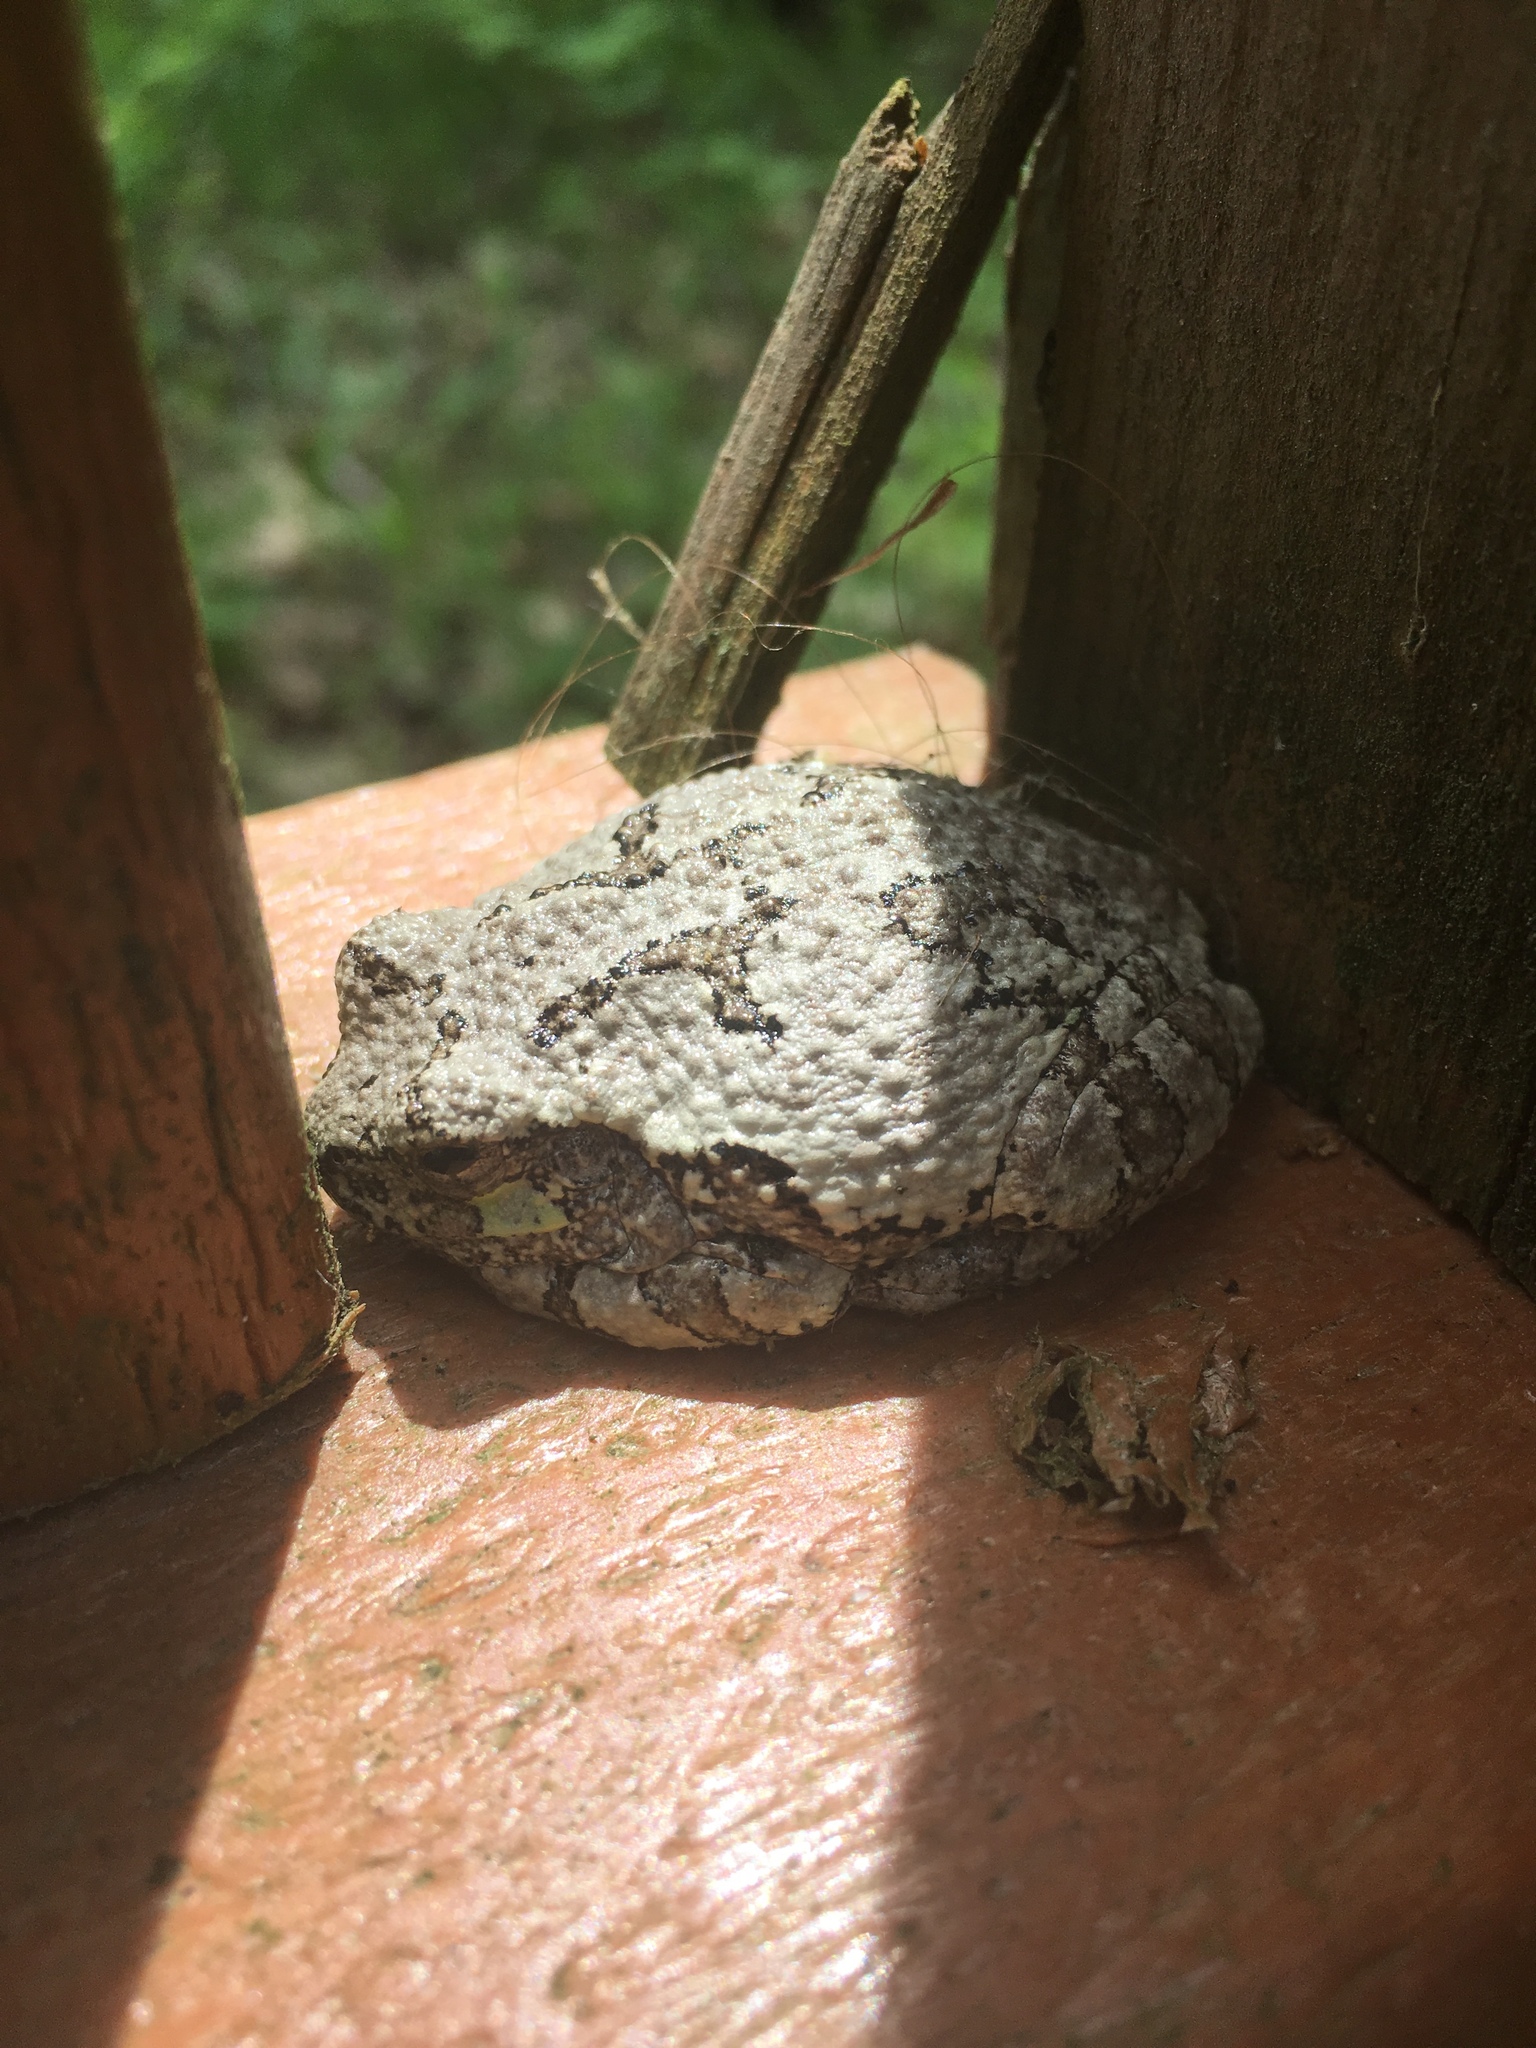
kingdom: Animalia
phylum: Chordata
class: Amphibia
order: Anura
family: Hylidae
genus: Dryophytes
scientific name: Dryophytes versicolor
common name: Gray treefrog
